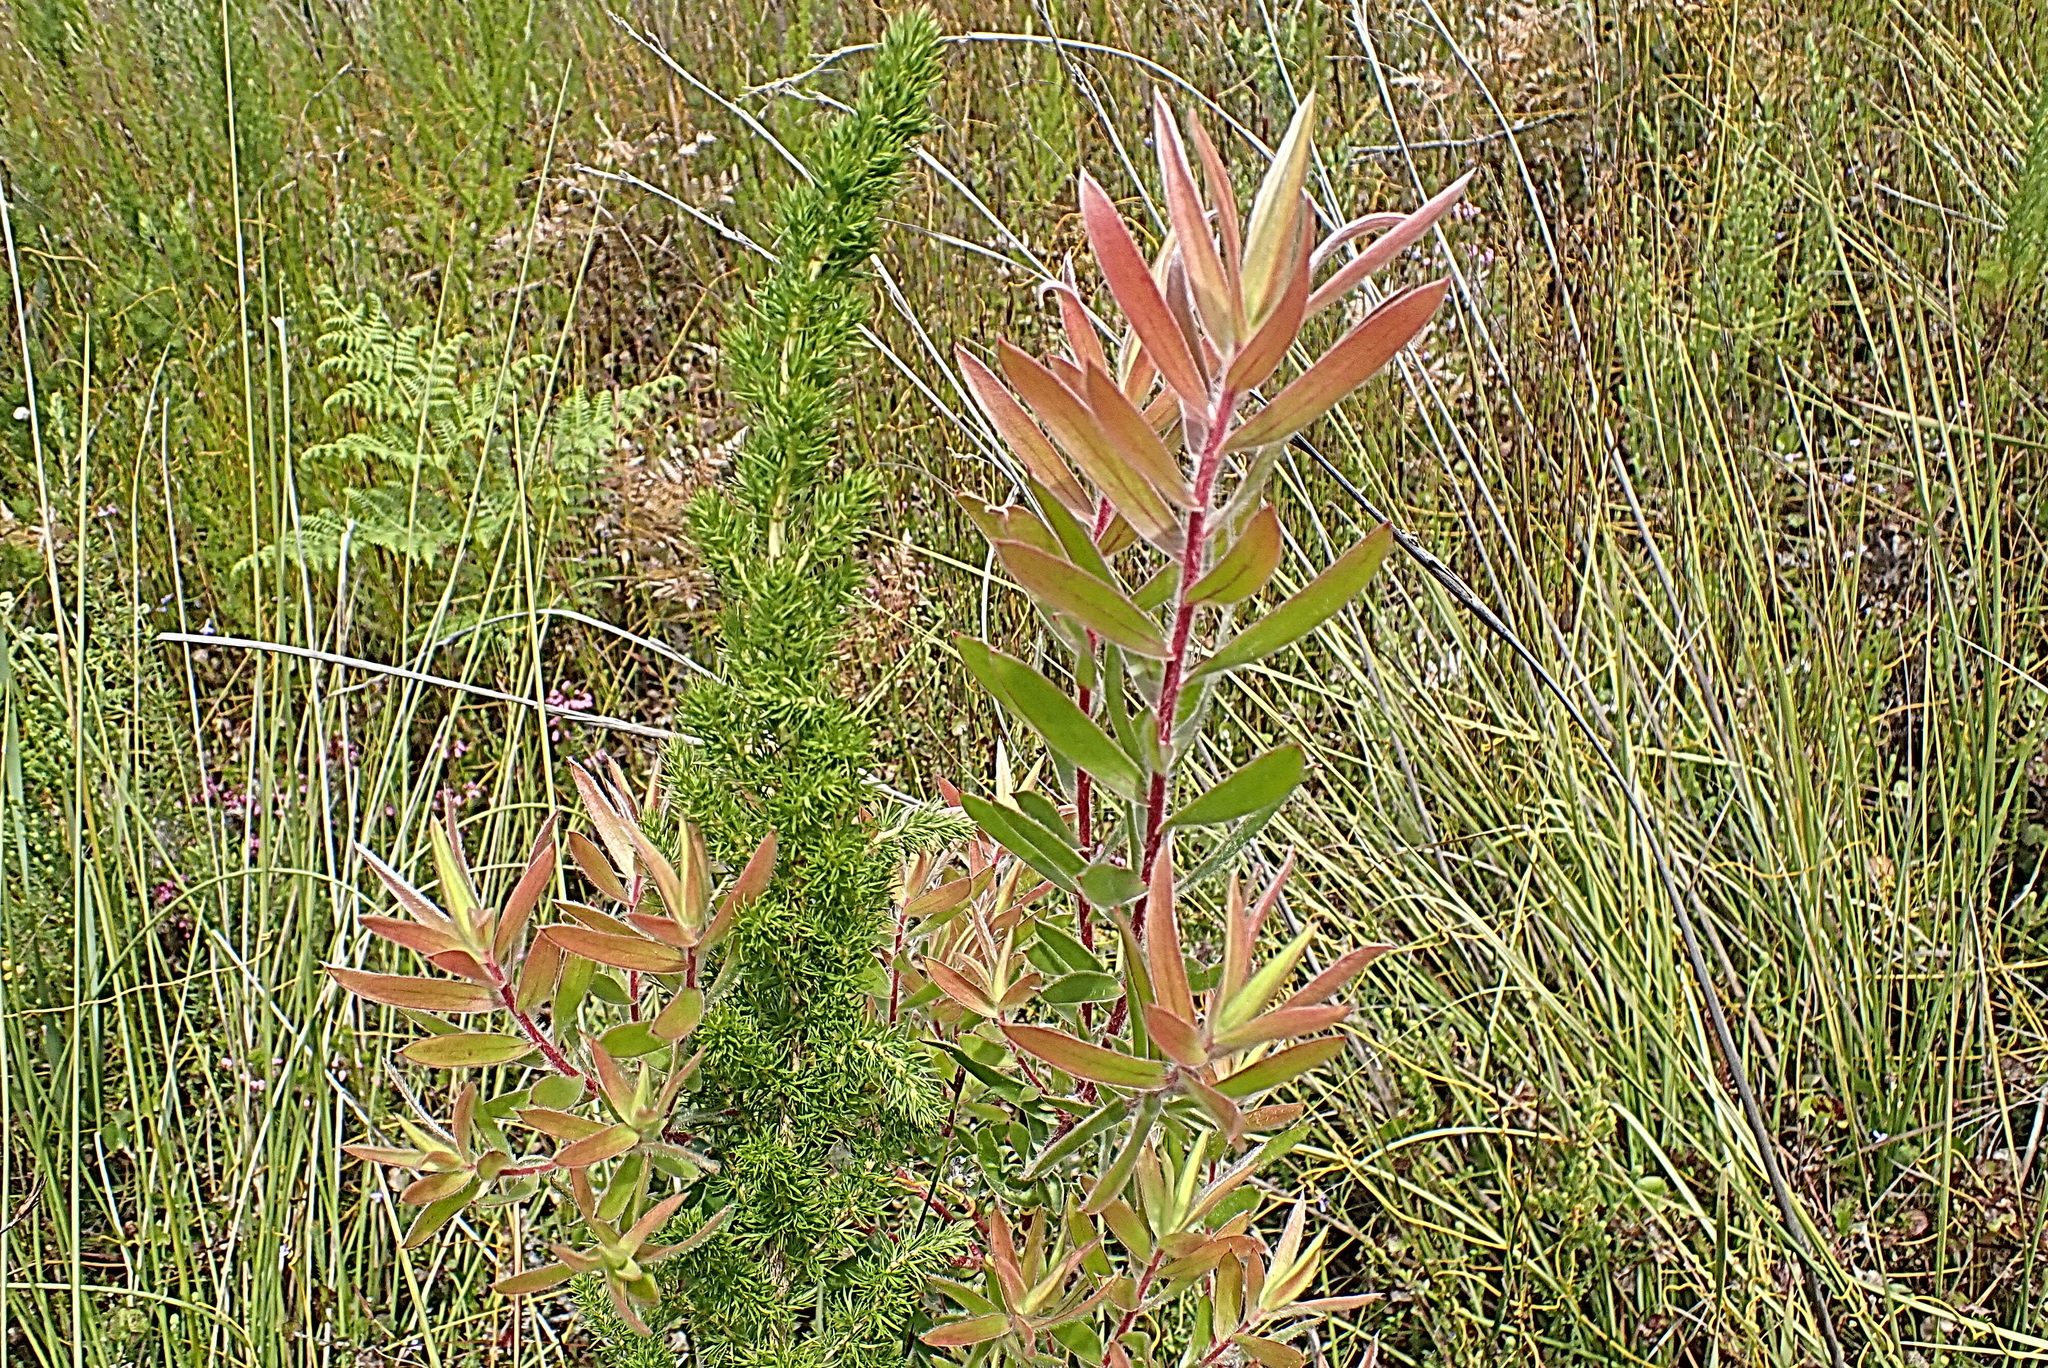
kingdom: Plantae
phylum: Tracheophyta
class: Magnoliopsida
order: Proteales
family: Proteaceae
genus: Leucadendron
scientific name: Leucadendron conicum
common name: Garden route conebush
